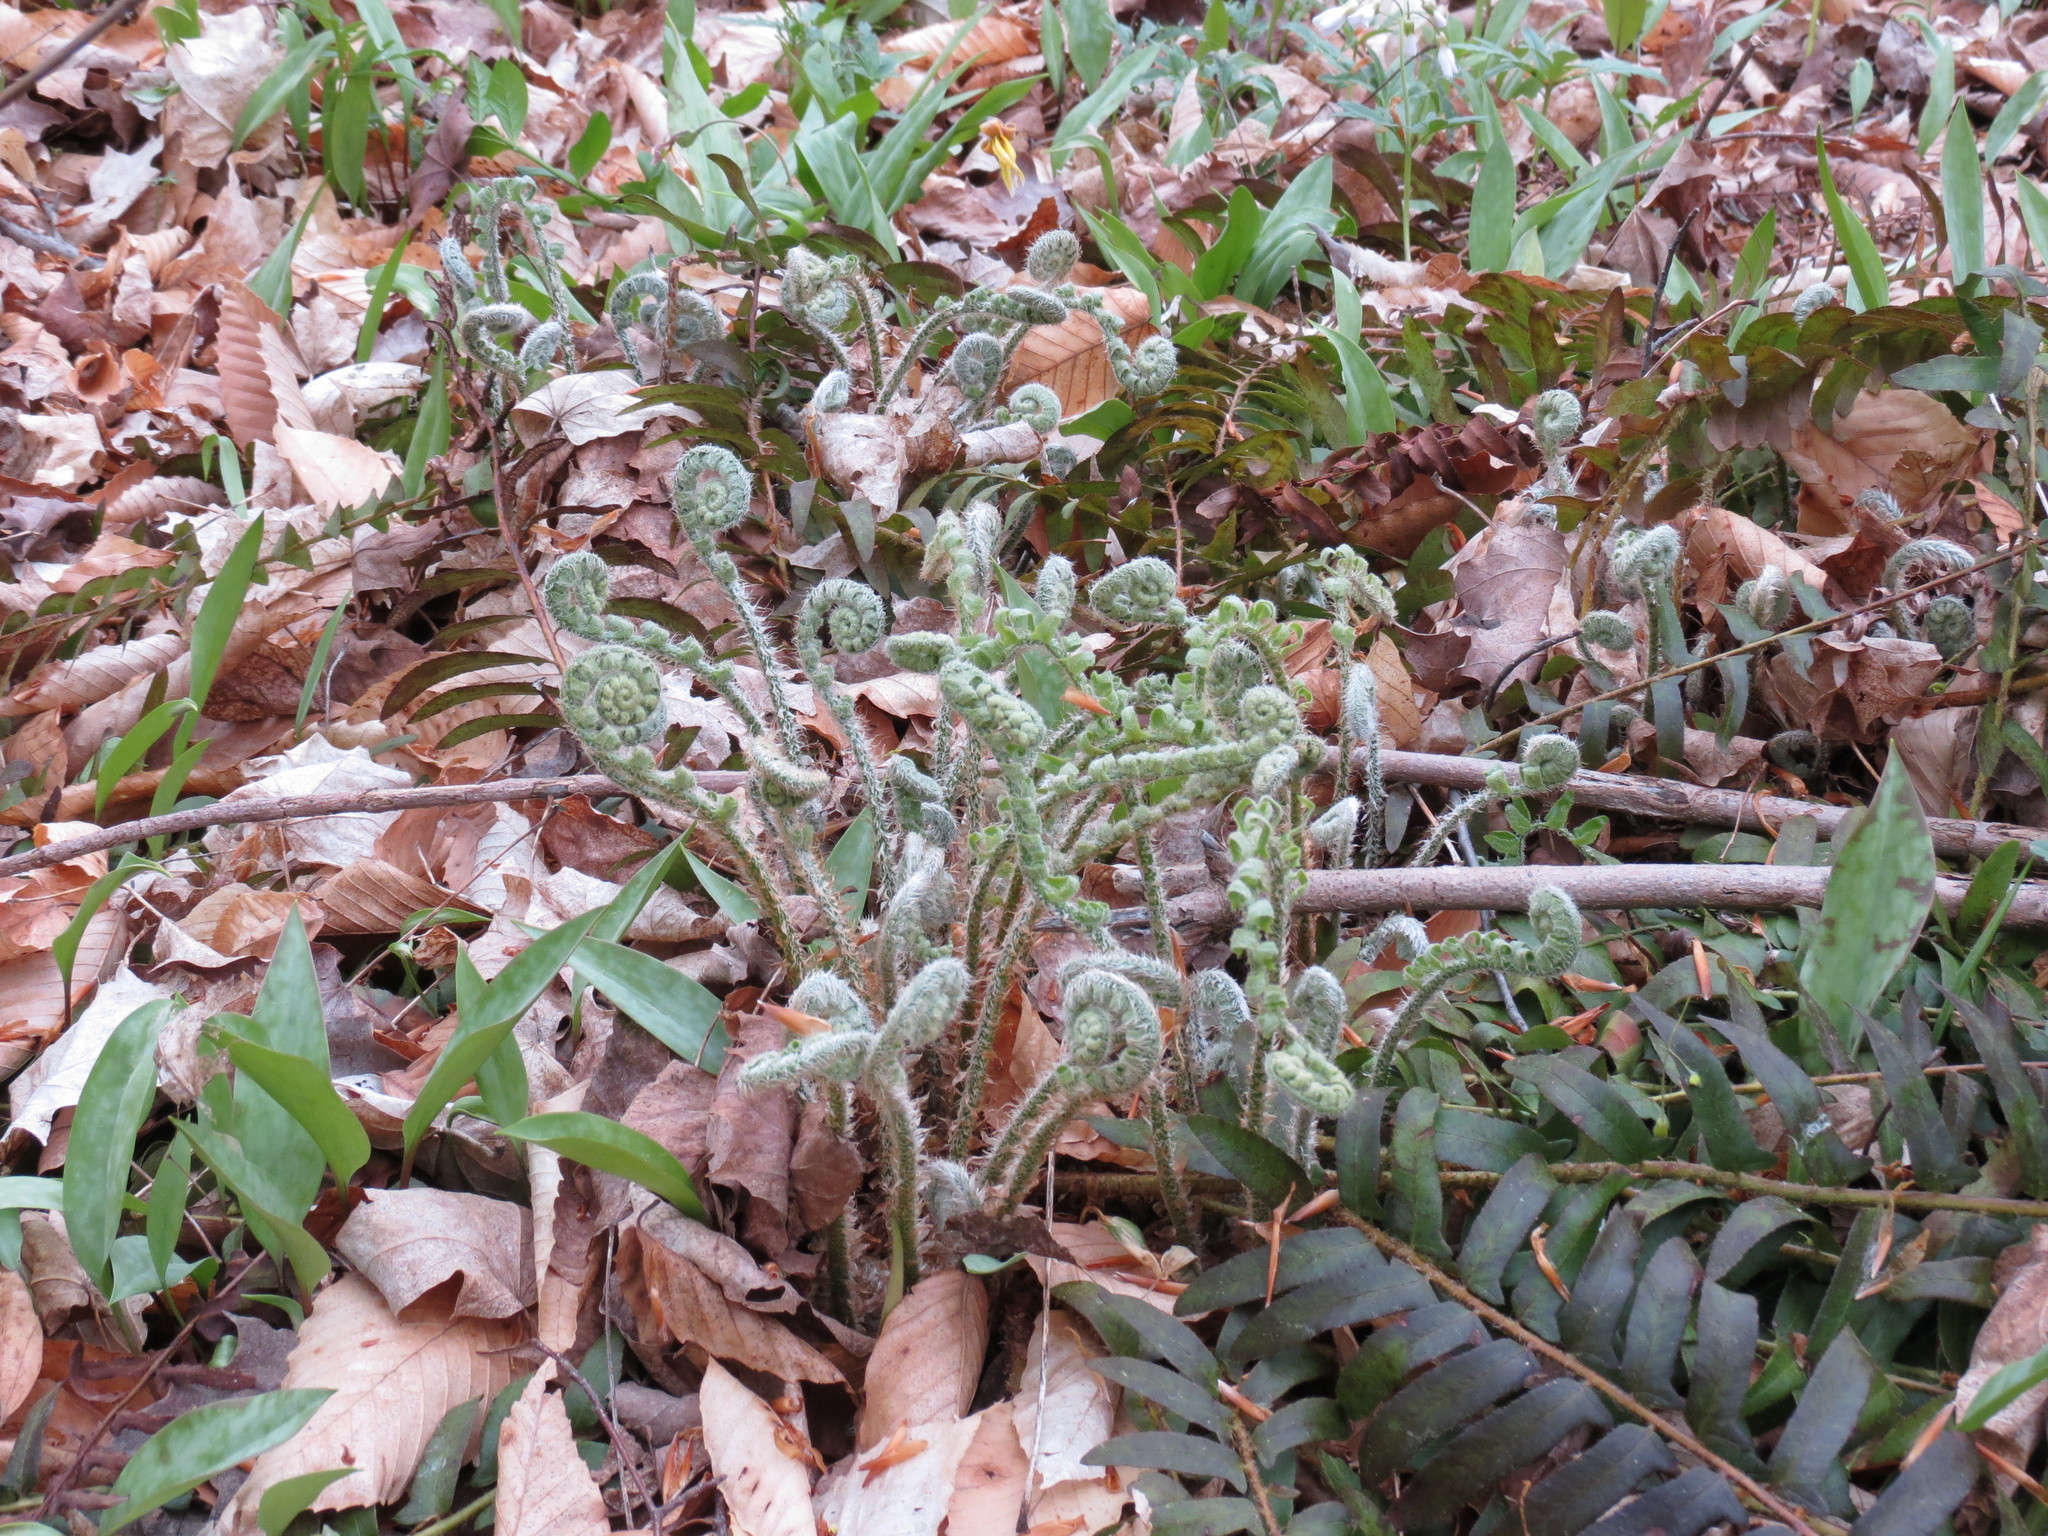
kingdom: Plantae
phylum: Tracheophyta
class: Polypodiopsida
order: Polypodiales
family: Dryopteridaceae
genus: Polystichum
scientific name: Polystichum acrostichoides
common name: Christmas fern
